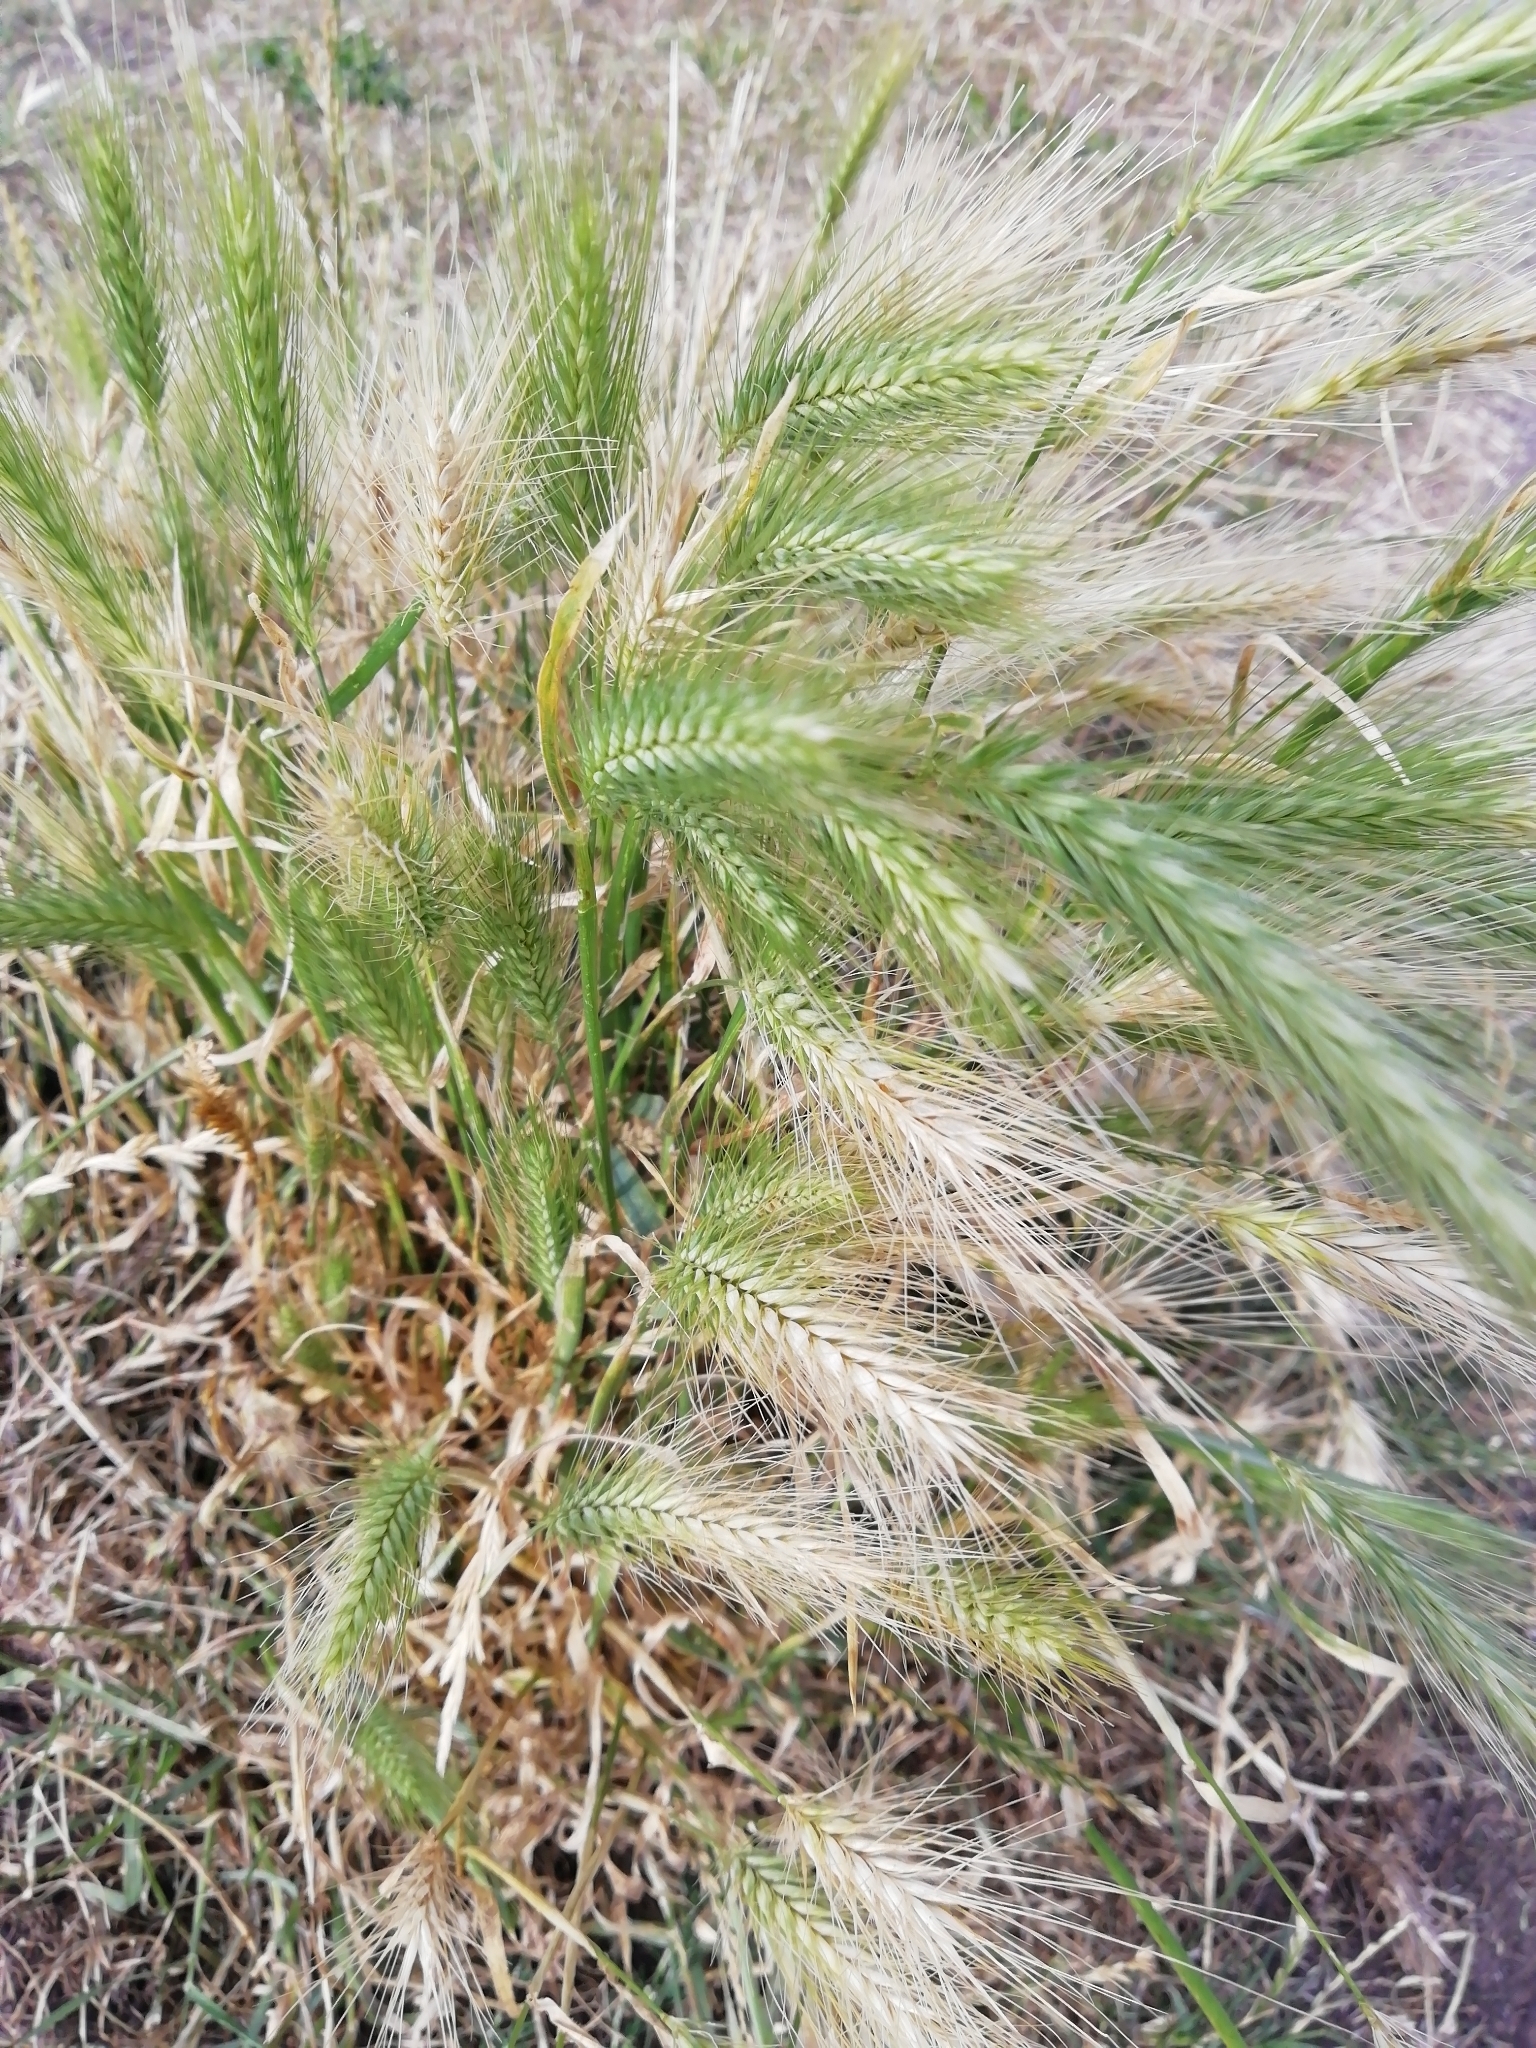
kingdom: Plantae
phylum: Tracheophyta
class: Liliopsida
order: Poales
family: Poaceae
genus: Hordeum
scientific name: Hordeum murinum
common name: Wall barley
